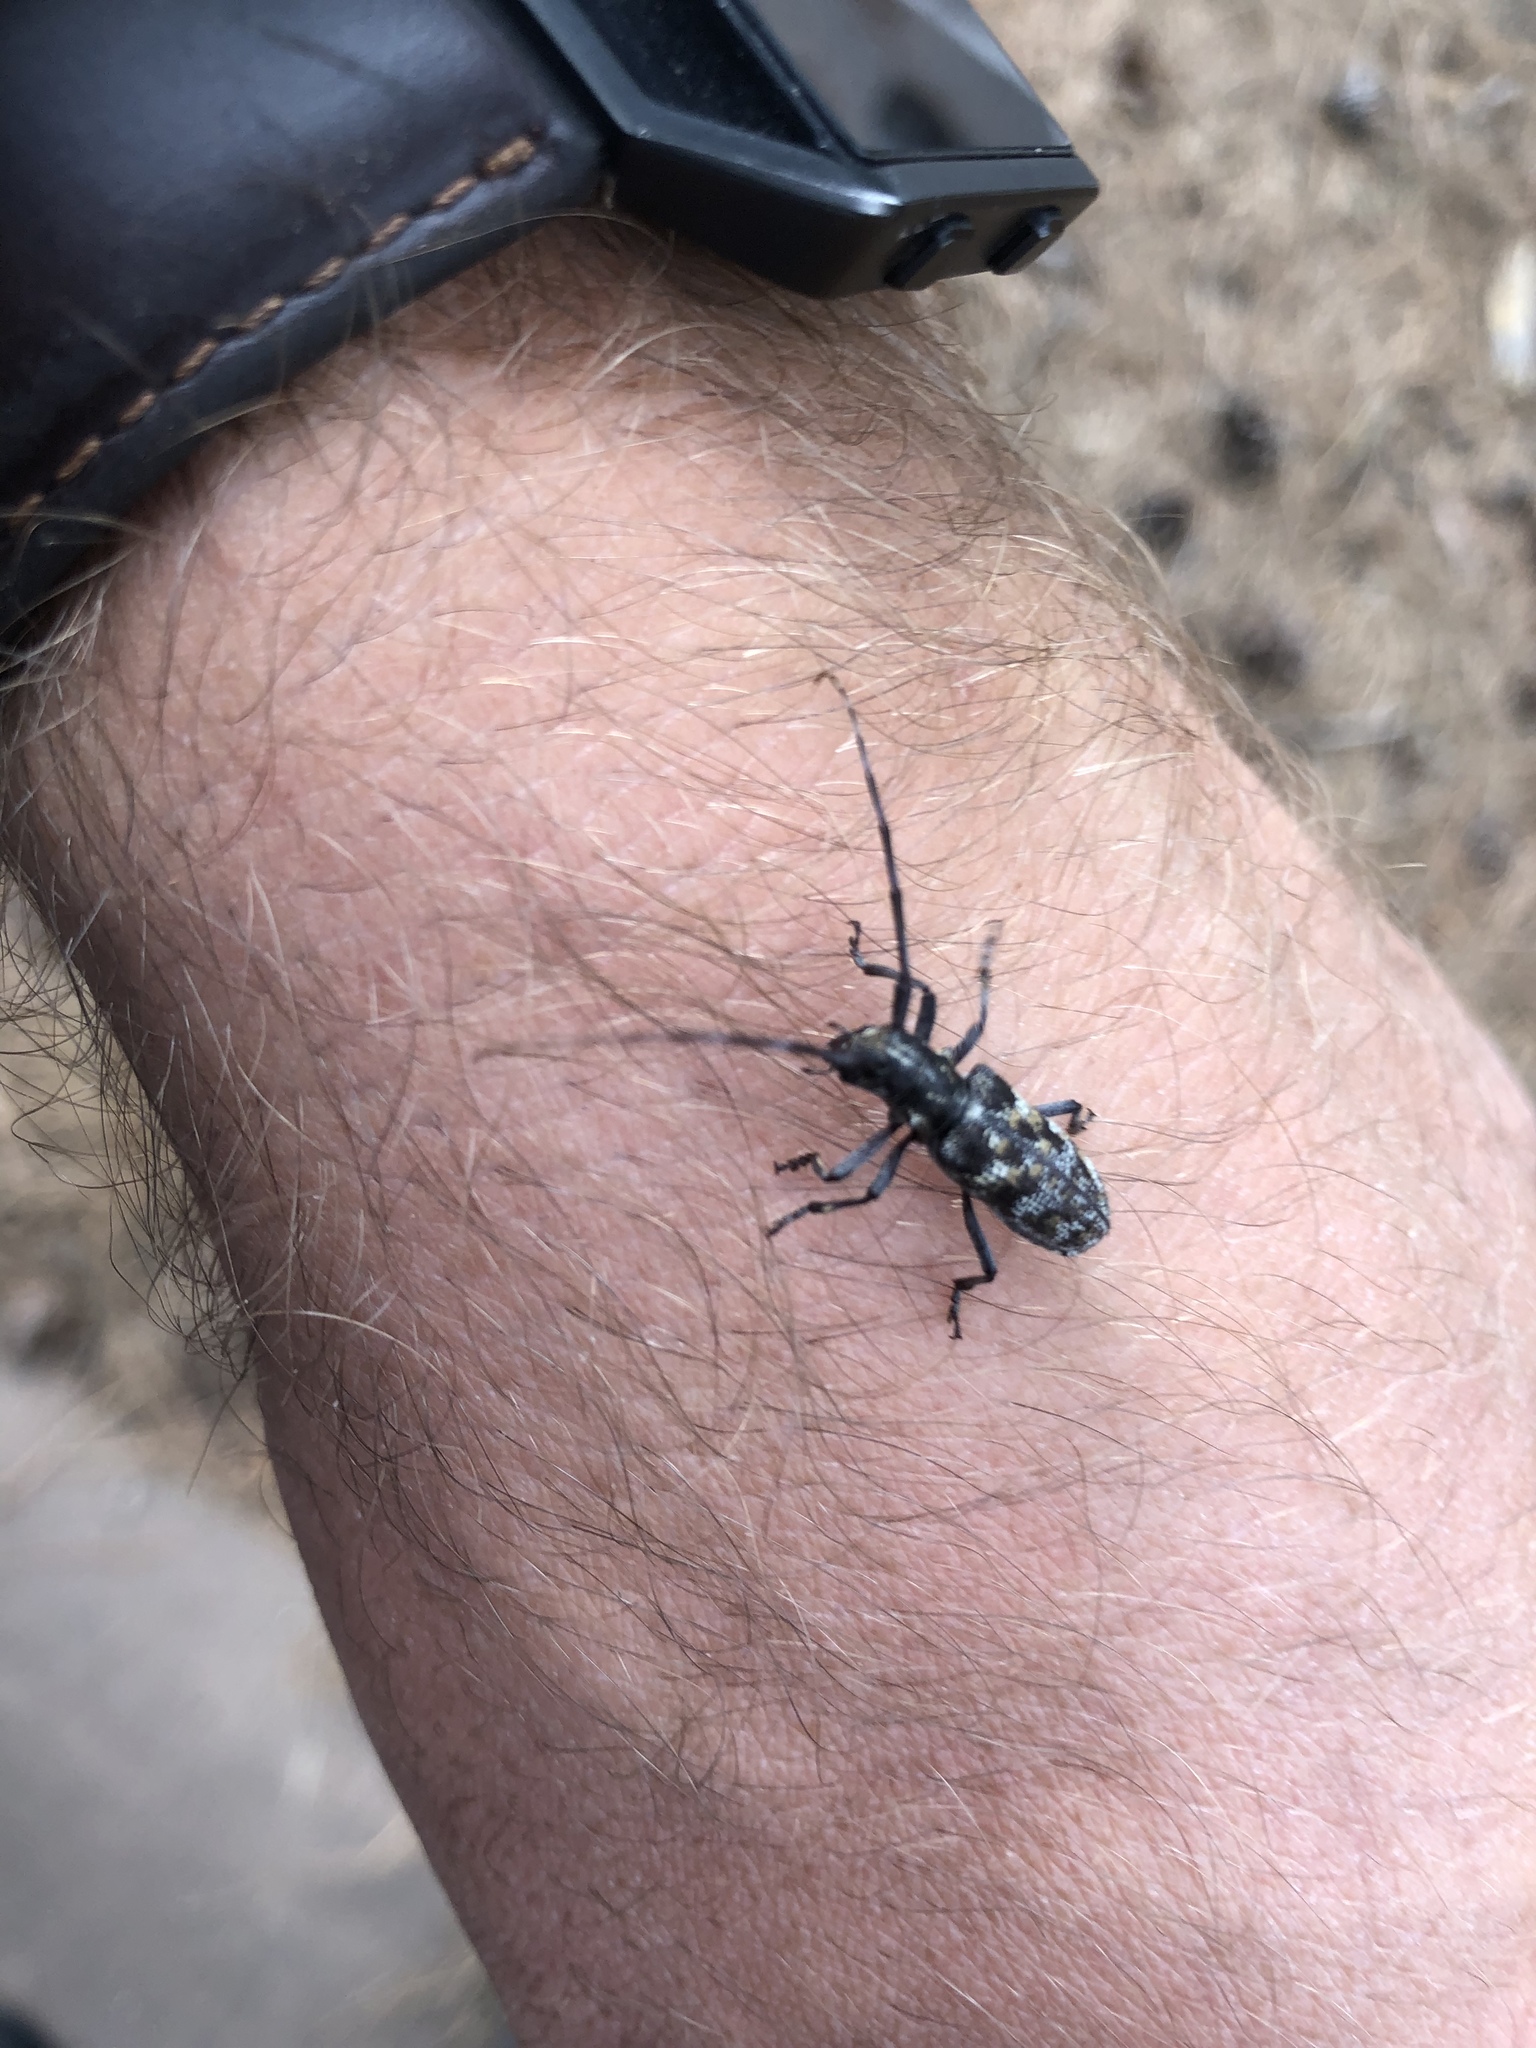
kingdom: Animalia
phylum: Arthropoda
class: Insecta
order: Coleoptera
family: Cerambycidae
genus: Monochamus
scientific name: Monochamus clamator
